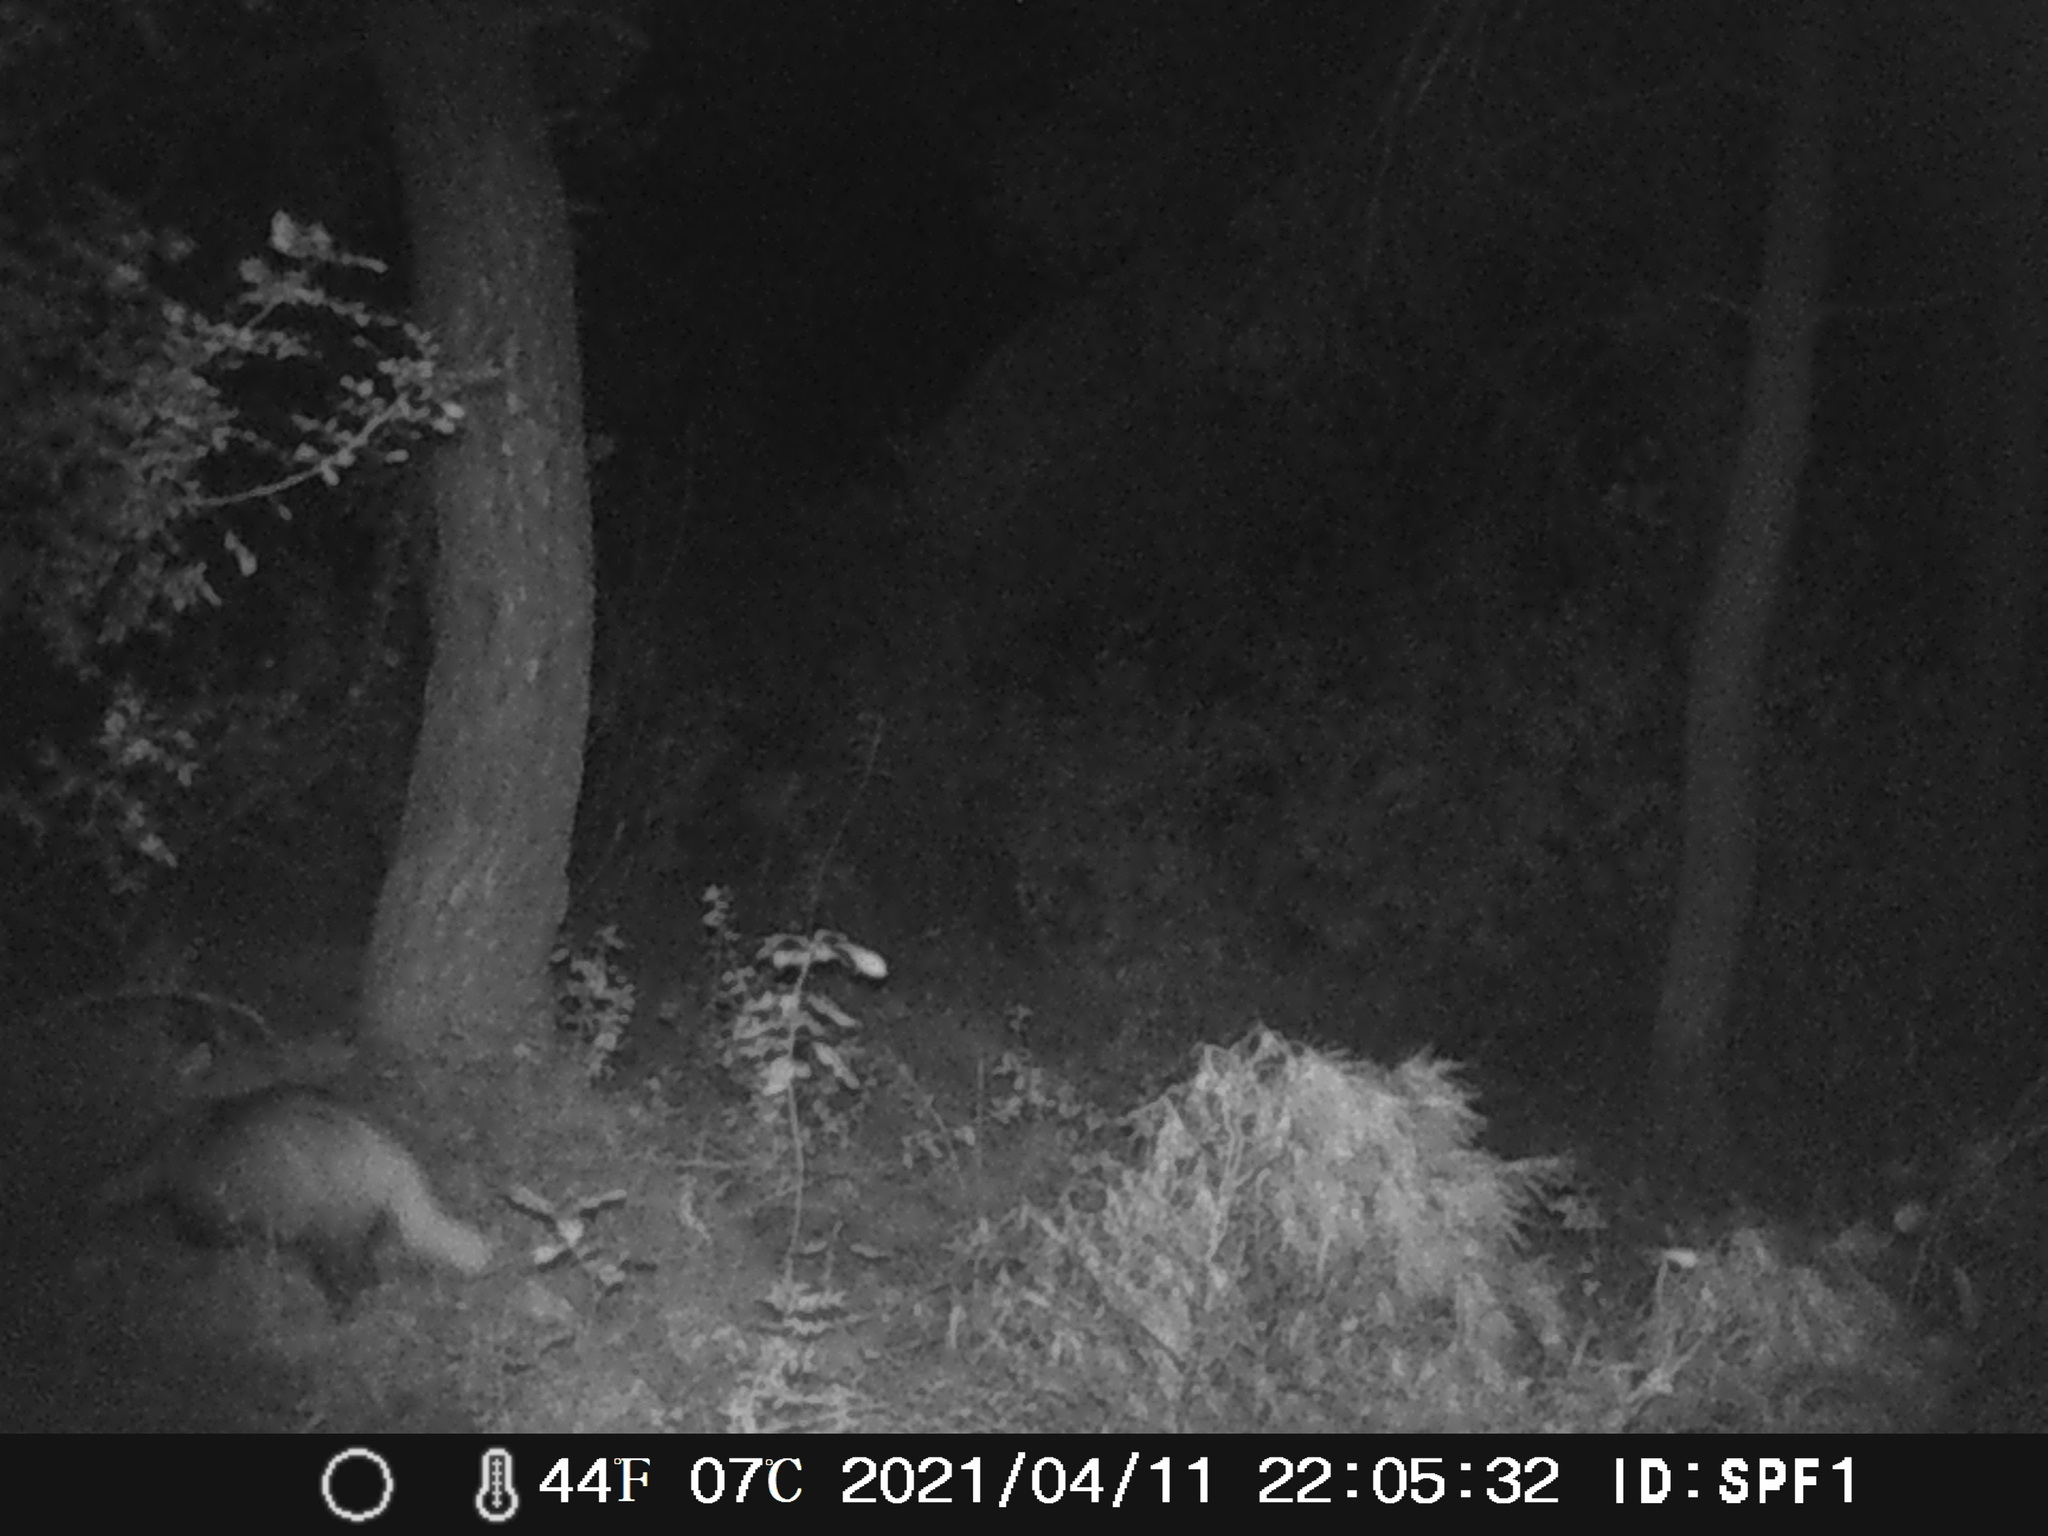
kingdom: Animalia
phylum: Chordata
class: Mammalia
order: Carnivora
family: Mustelidae
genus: Meles
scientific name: Meles meles
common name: Eurasian badger
